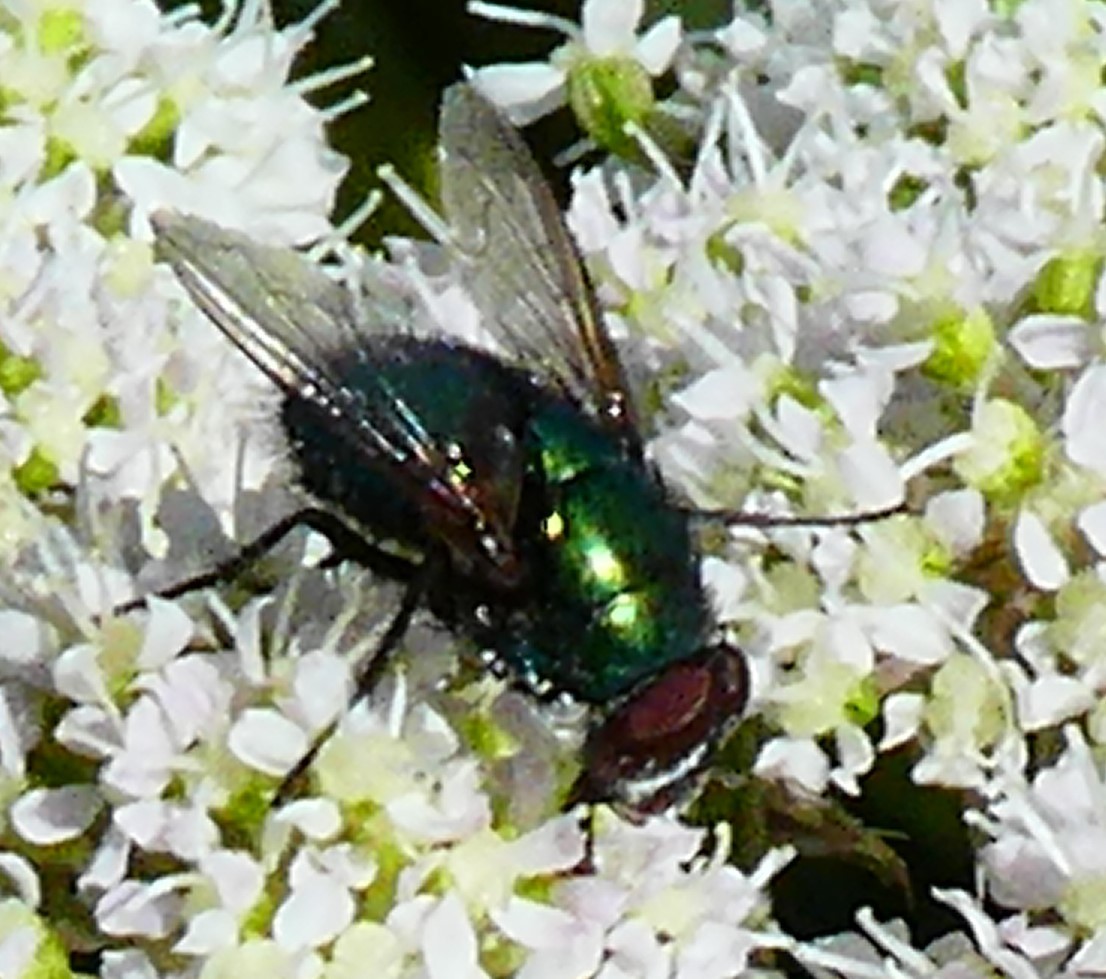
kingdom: Animalia
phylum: Arthropoda
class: Insecta
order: Diptera
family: Calliphoridae
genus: Lucilia
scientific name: Lucilia
